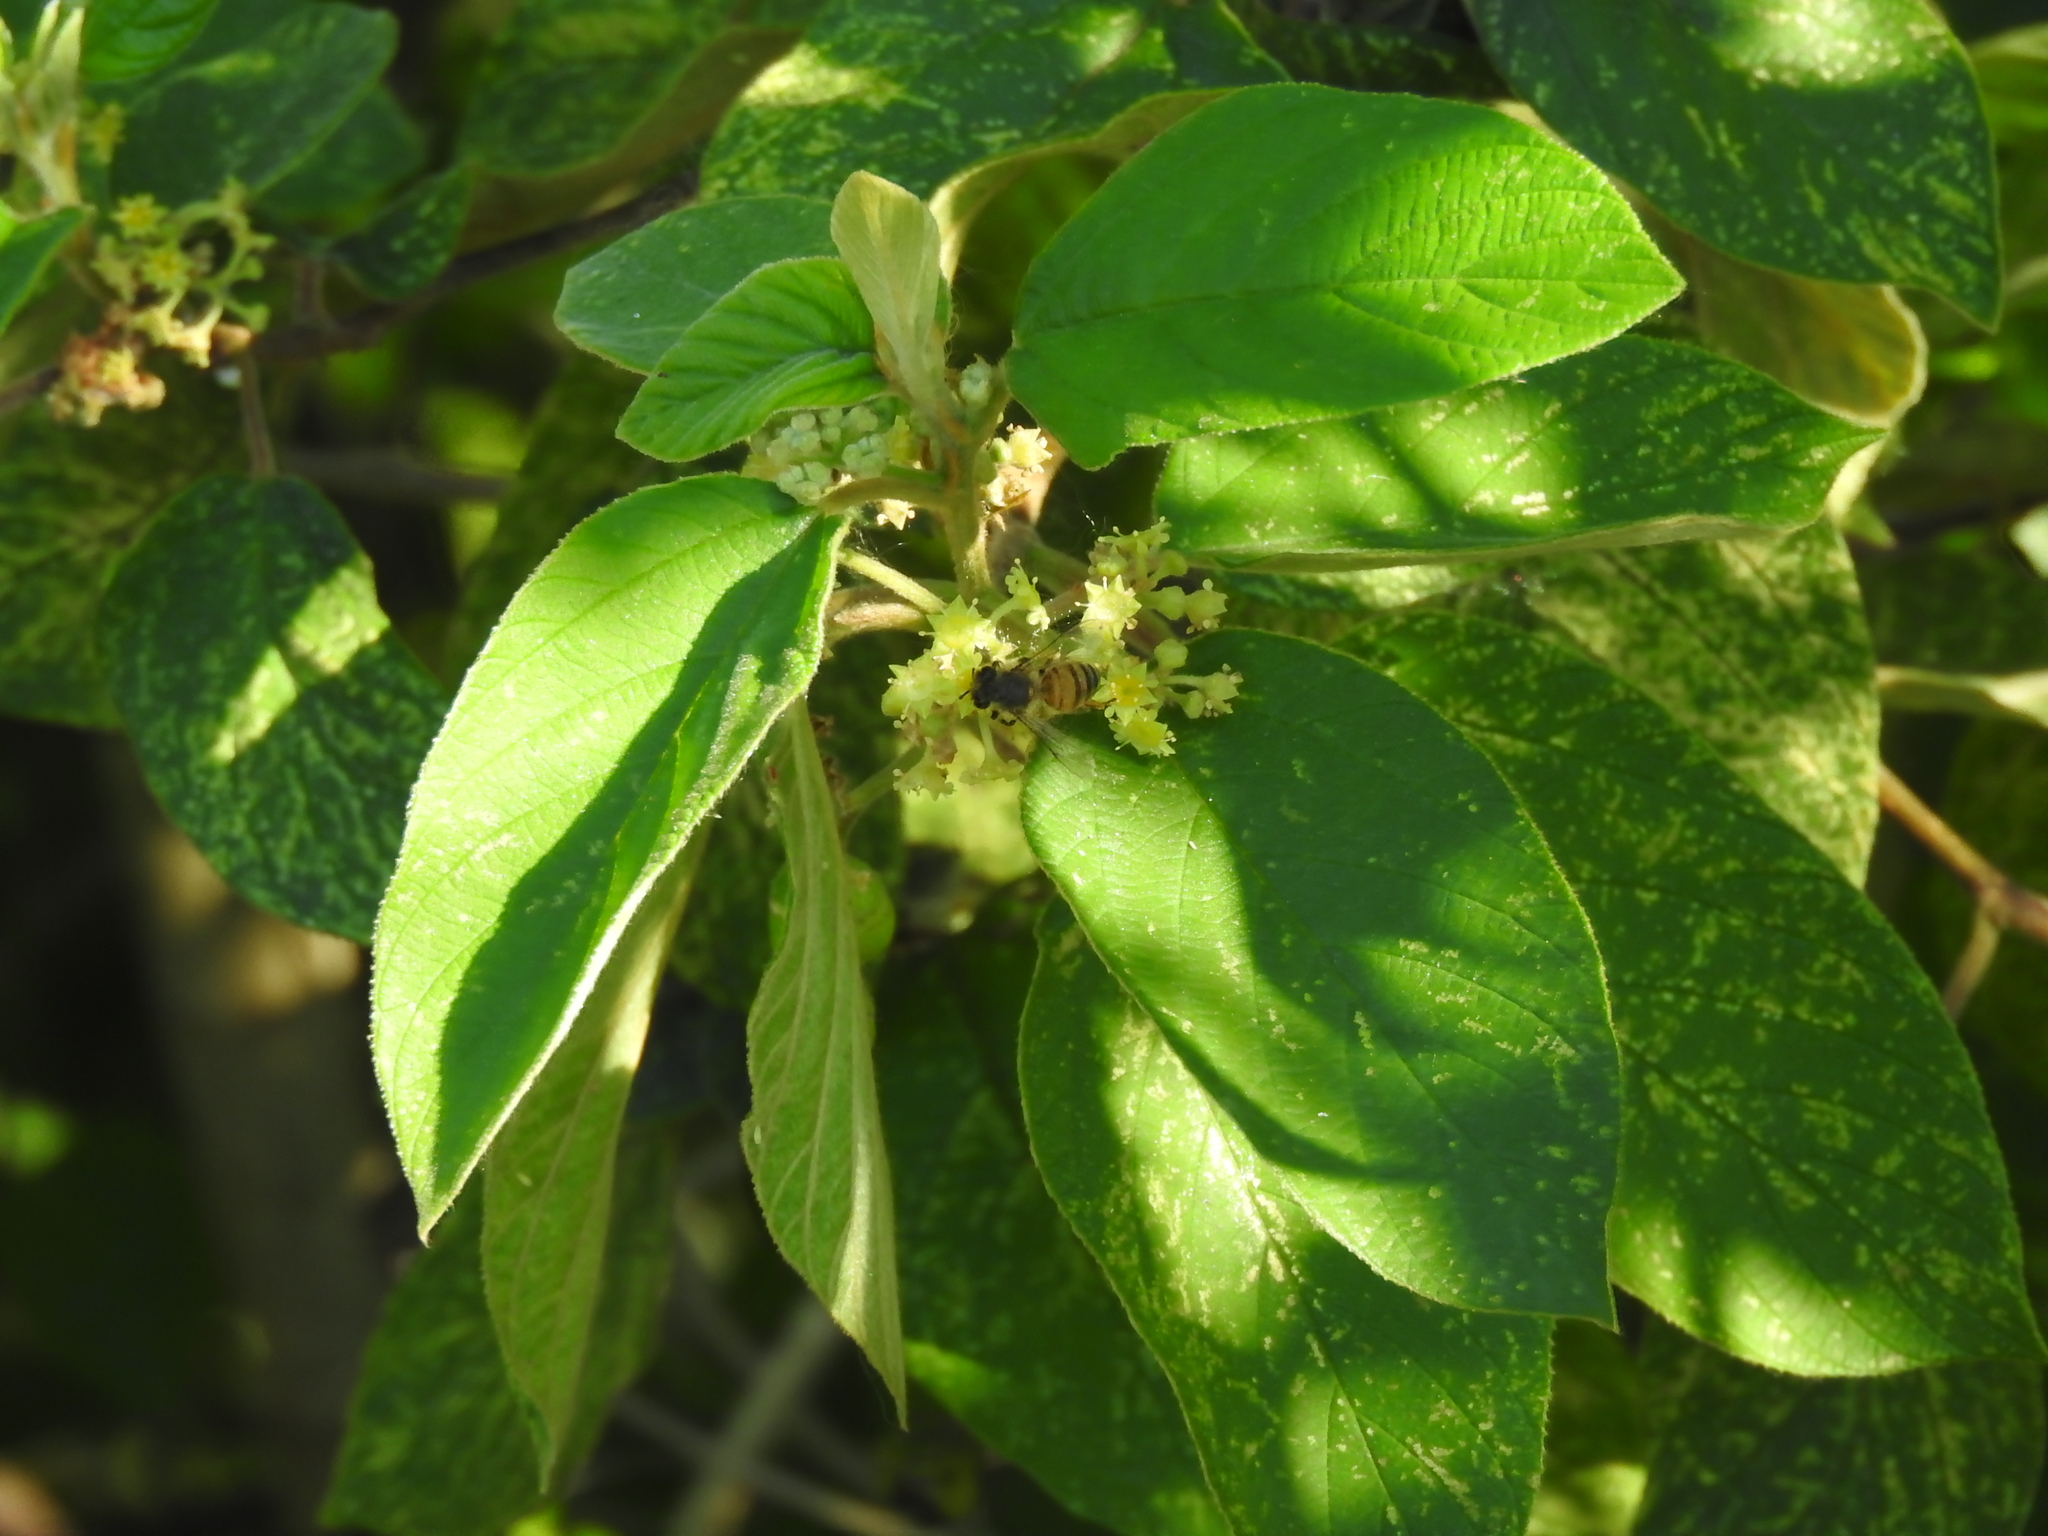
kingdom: Animalia
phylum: Arthropoda
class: Insecta
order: Hymenoptera
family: Apidae
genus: Apis
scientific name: Apis mellifera
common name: Honey bee
